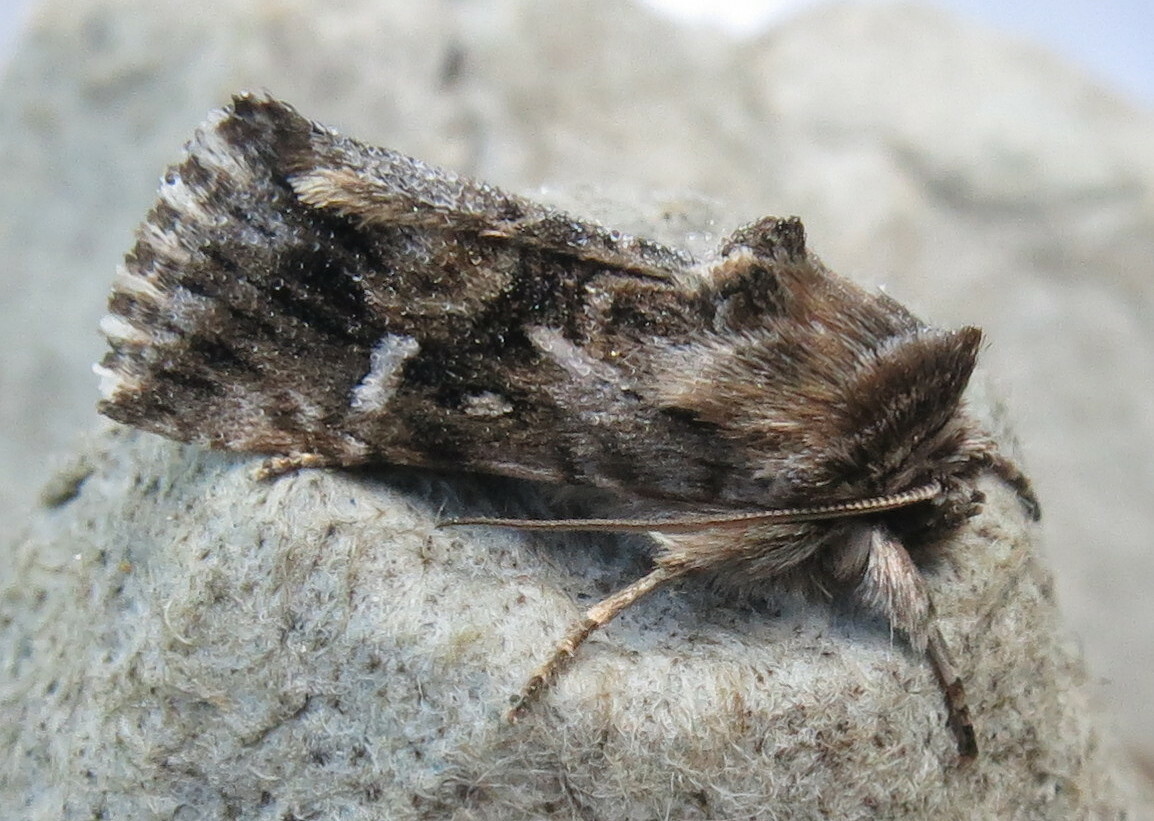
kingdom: Animalia
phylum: Arthropoda
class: Insecta
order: Lepidoptera
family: Noctuidae
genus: Calophasia
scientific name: Calophasia lunula
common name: Toadflax brocade
